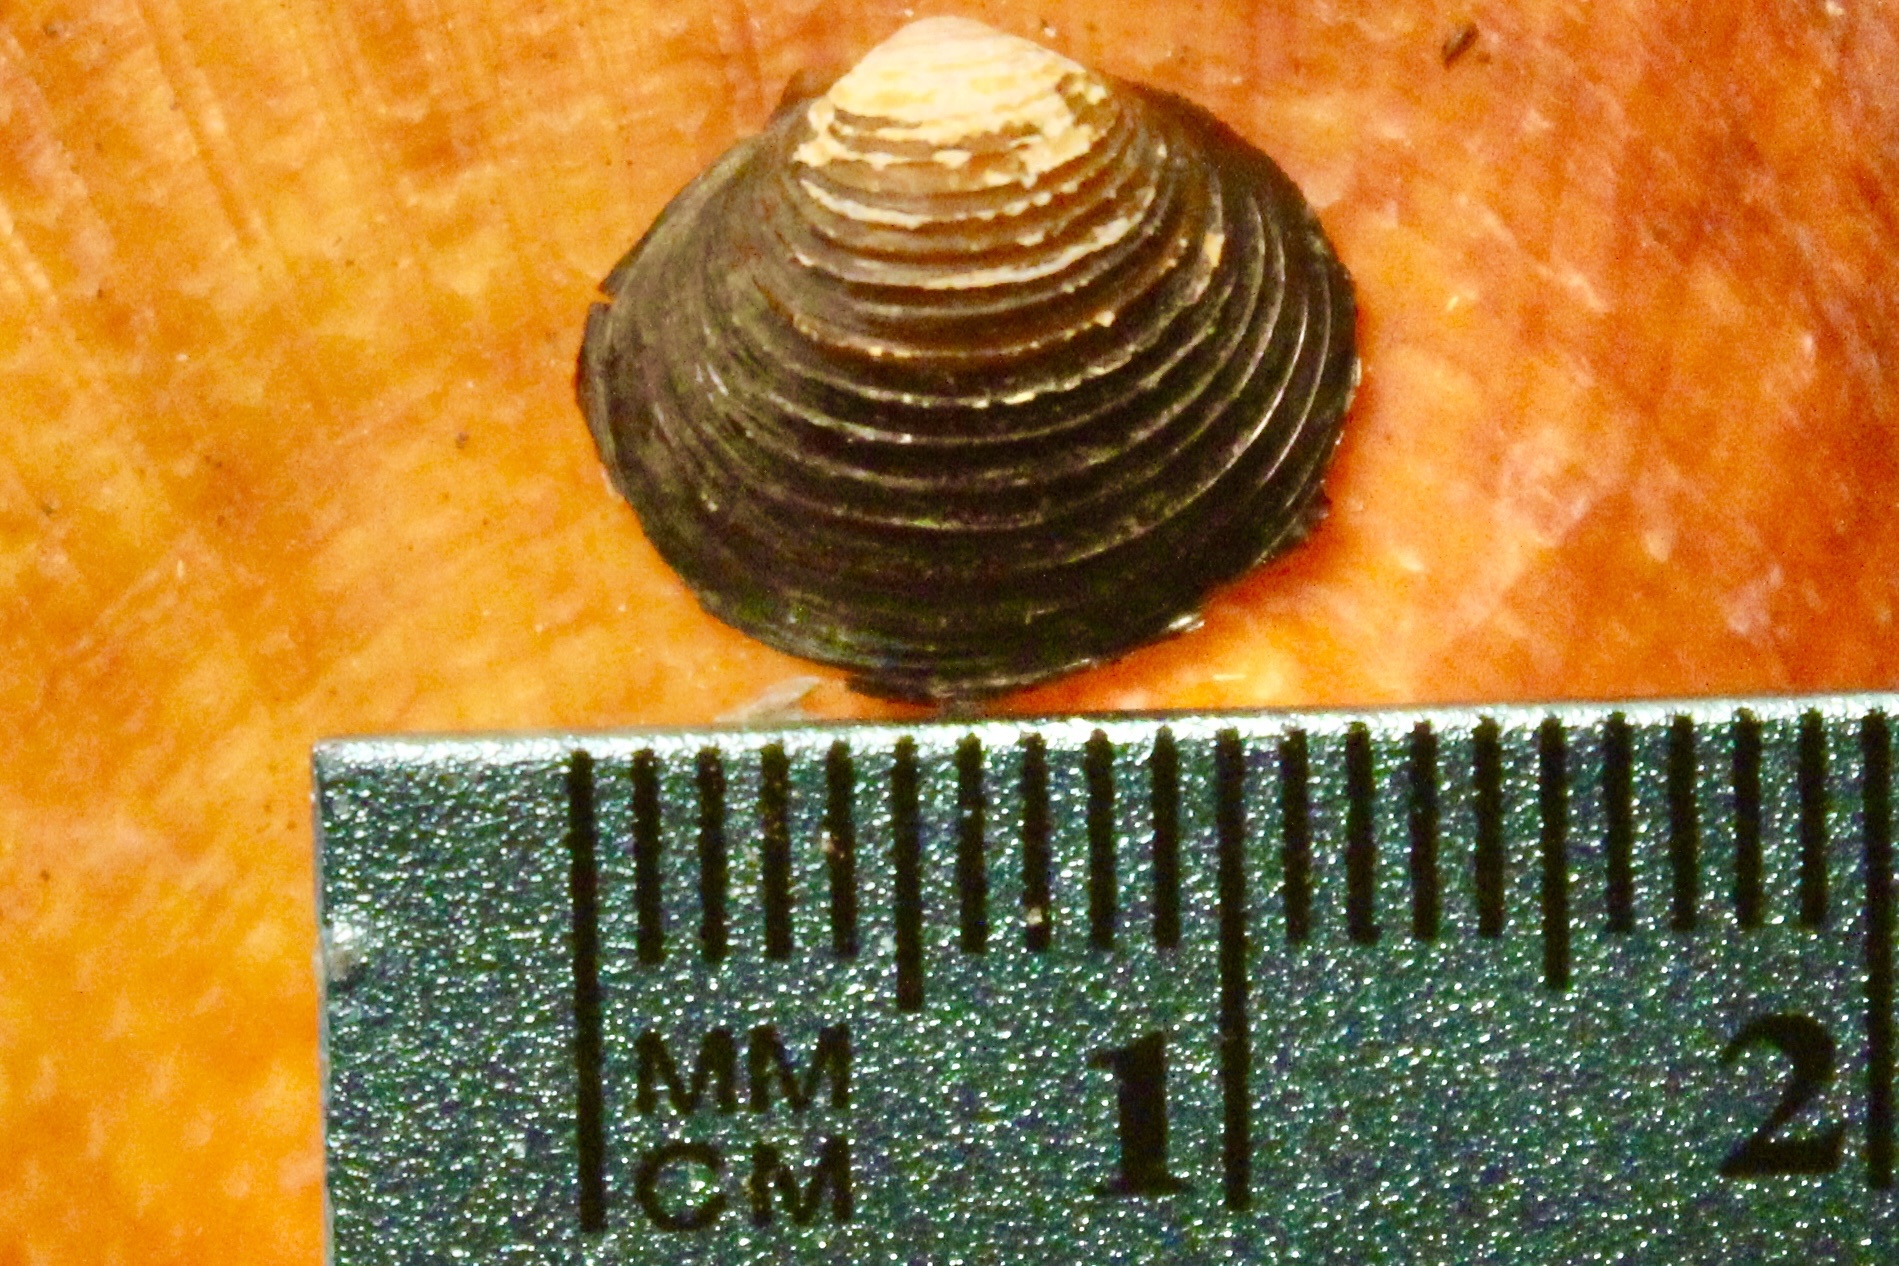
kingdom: Animalia
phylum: Mollusca
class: Bivalvia
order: Venerida
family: Cyrenidae
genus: Corbicula
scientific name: Corbicula fluminea
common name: Asian clam
